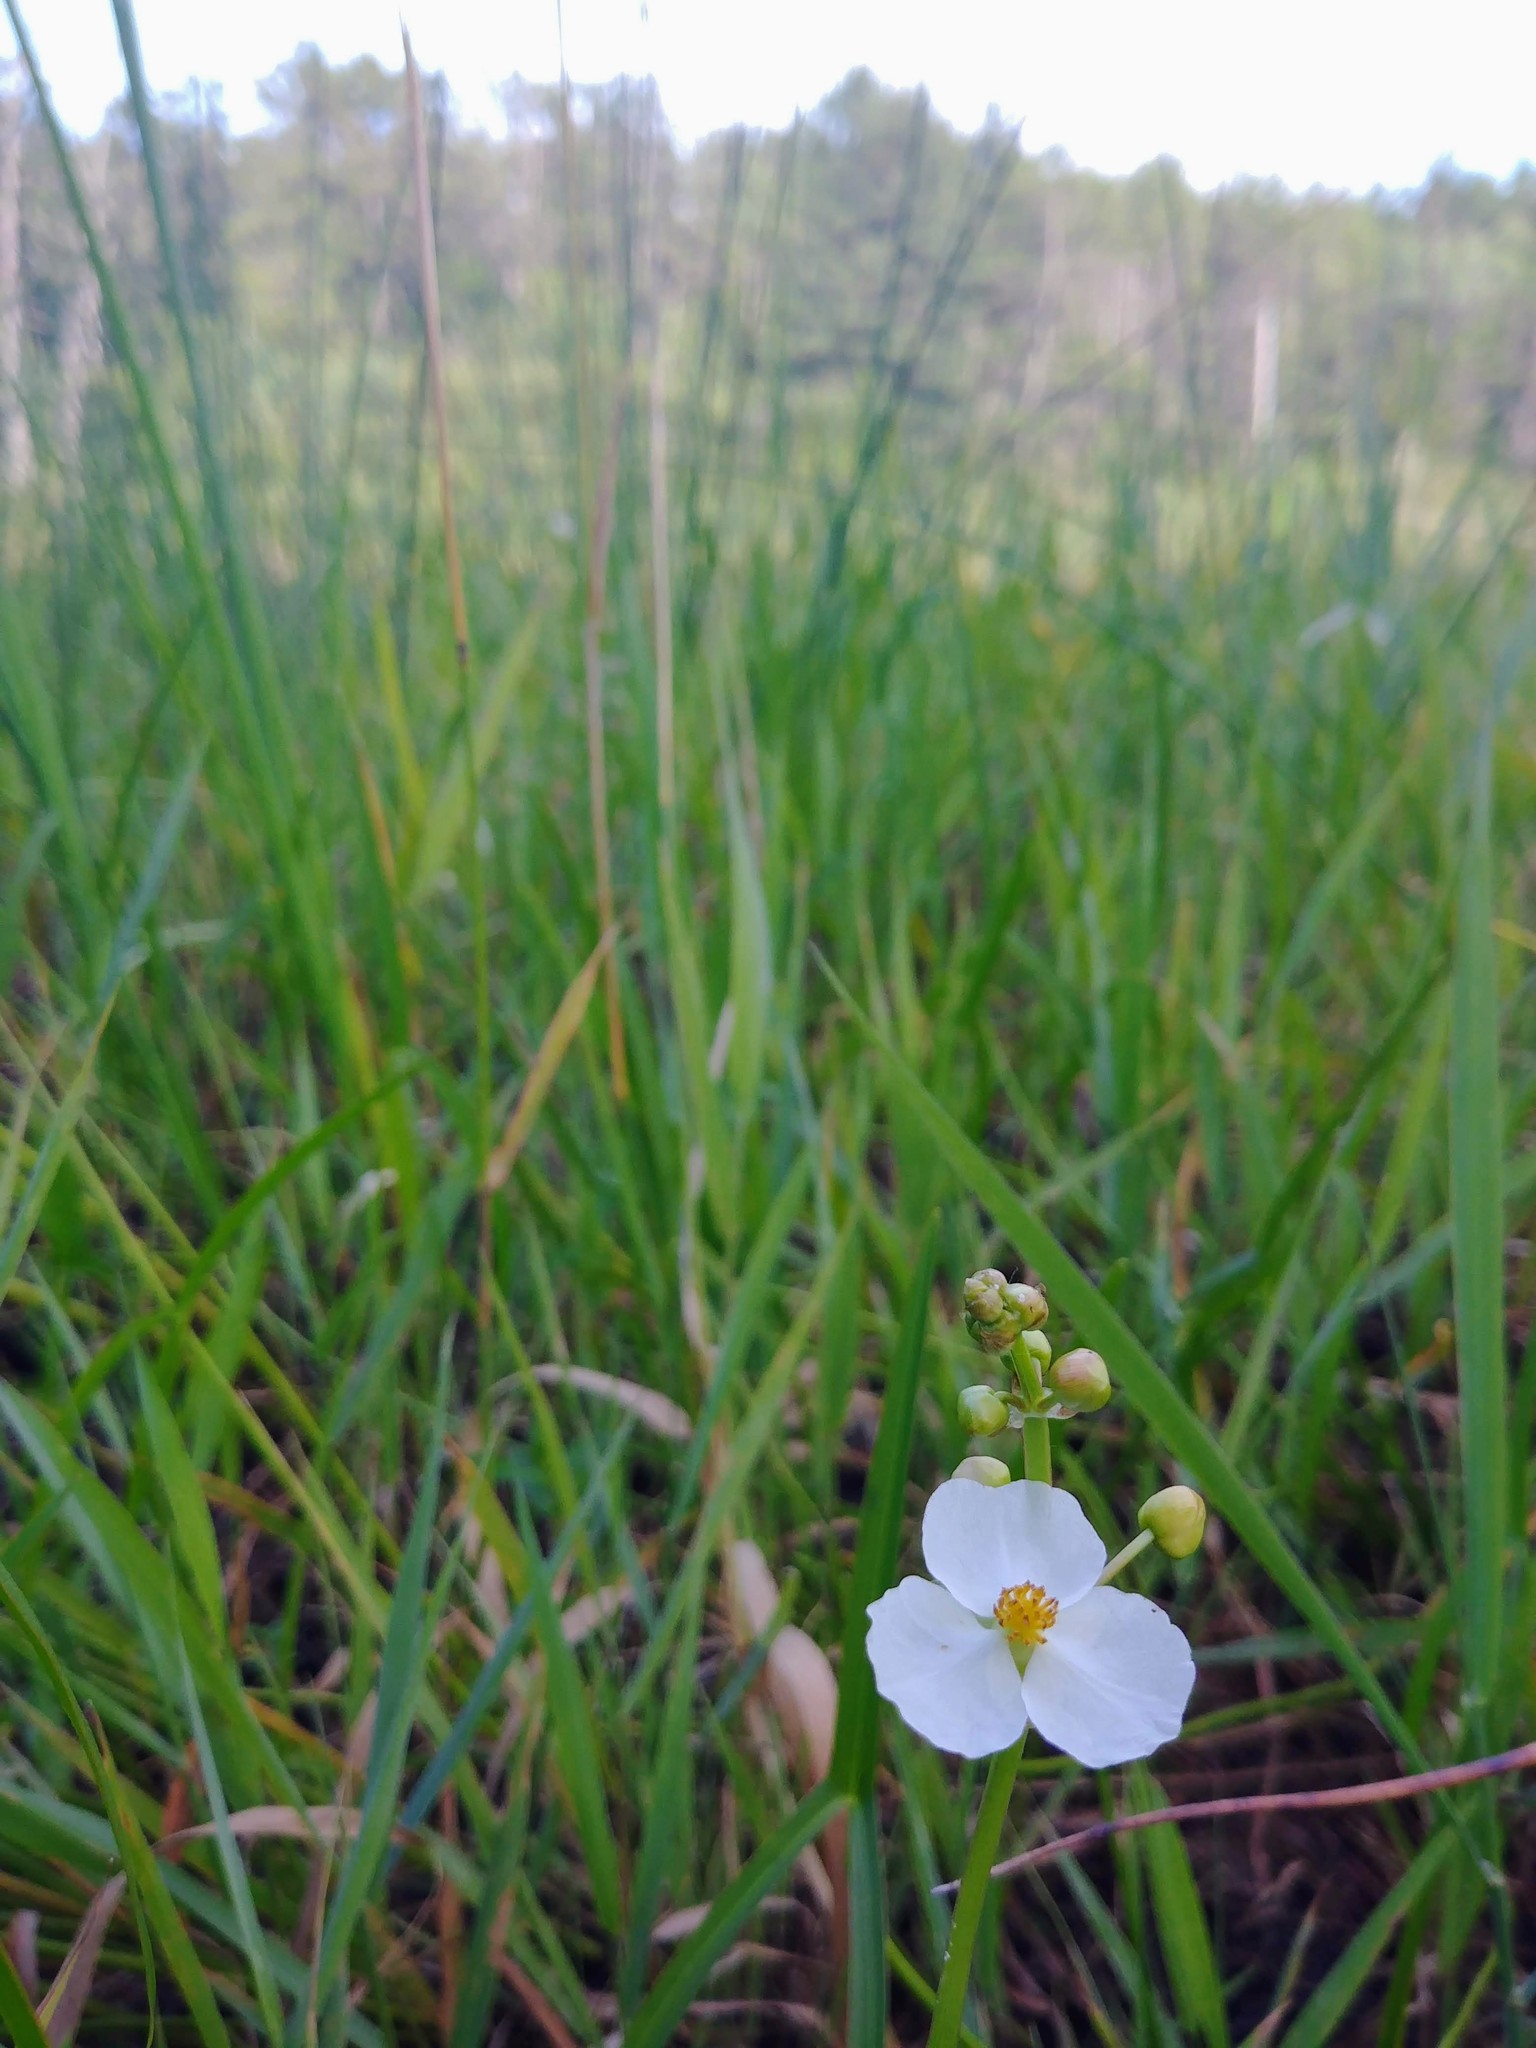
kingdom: Plantae
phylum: Tracheophyta
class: Liliopsida
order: Alismatales
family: Alismataceae
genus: Sagittaria
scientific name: Sagittaria latifolia
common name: Duck-potato
